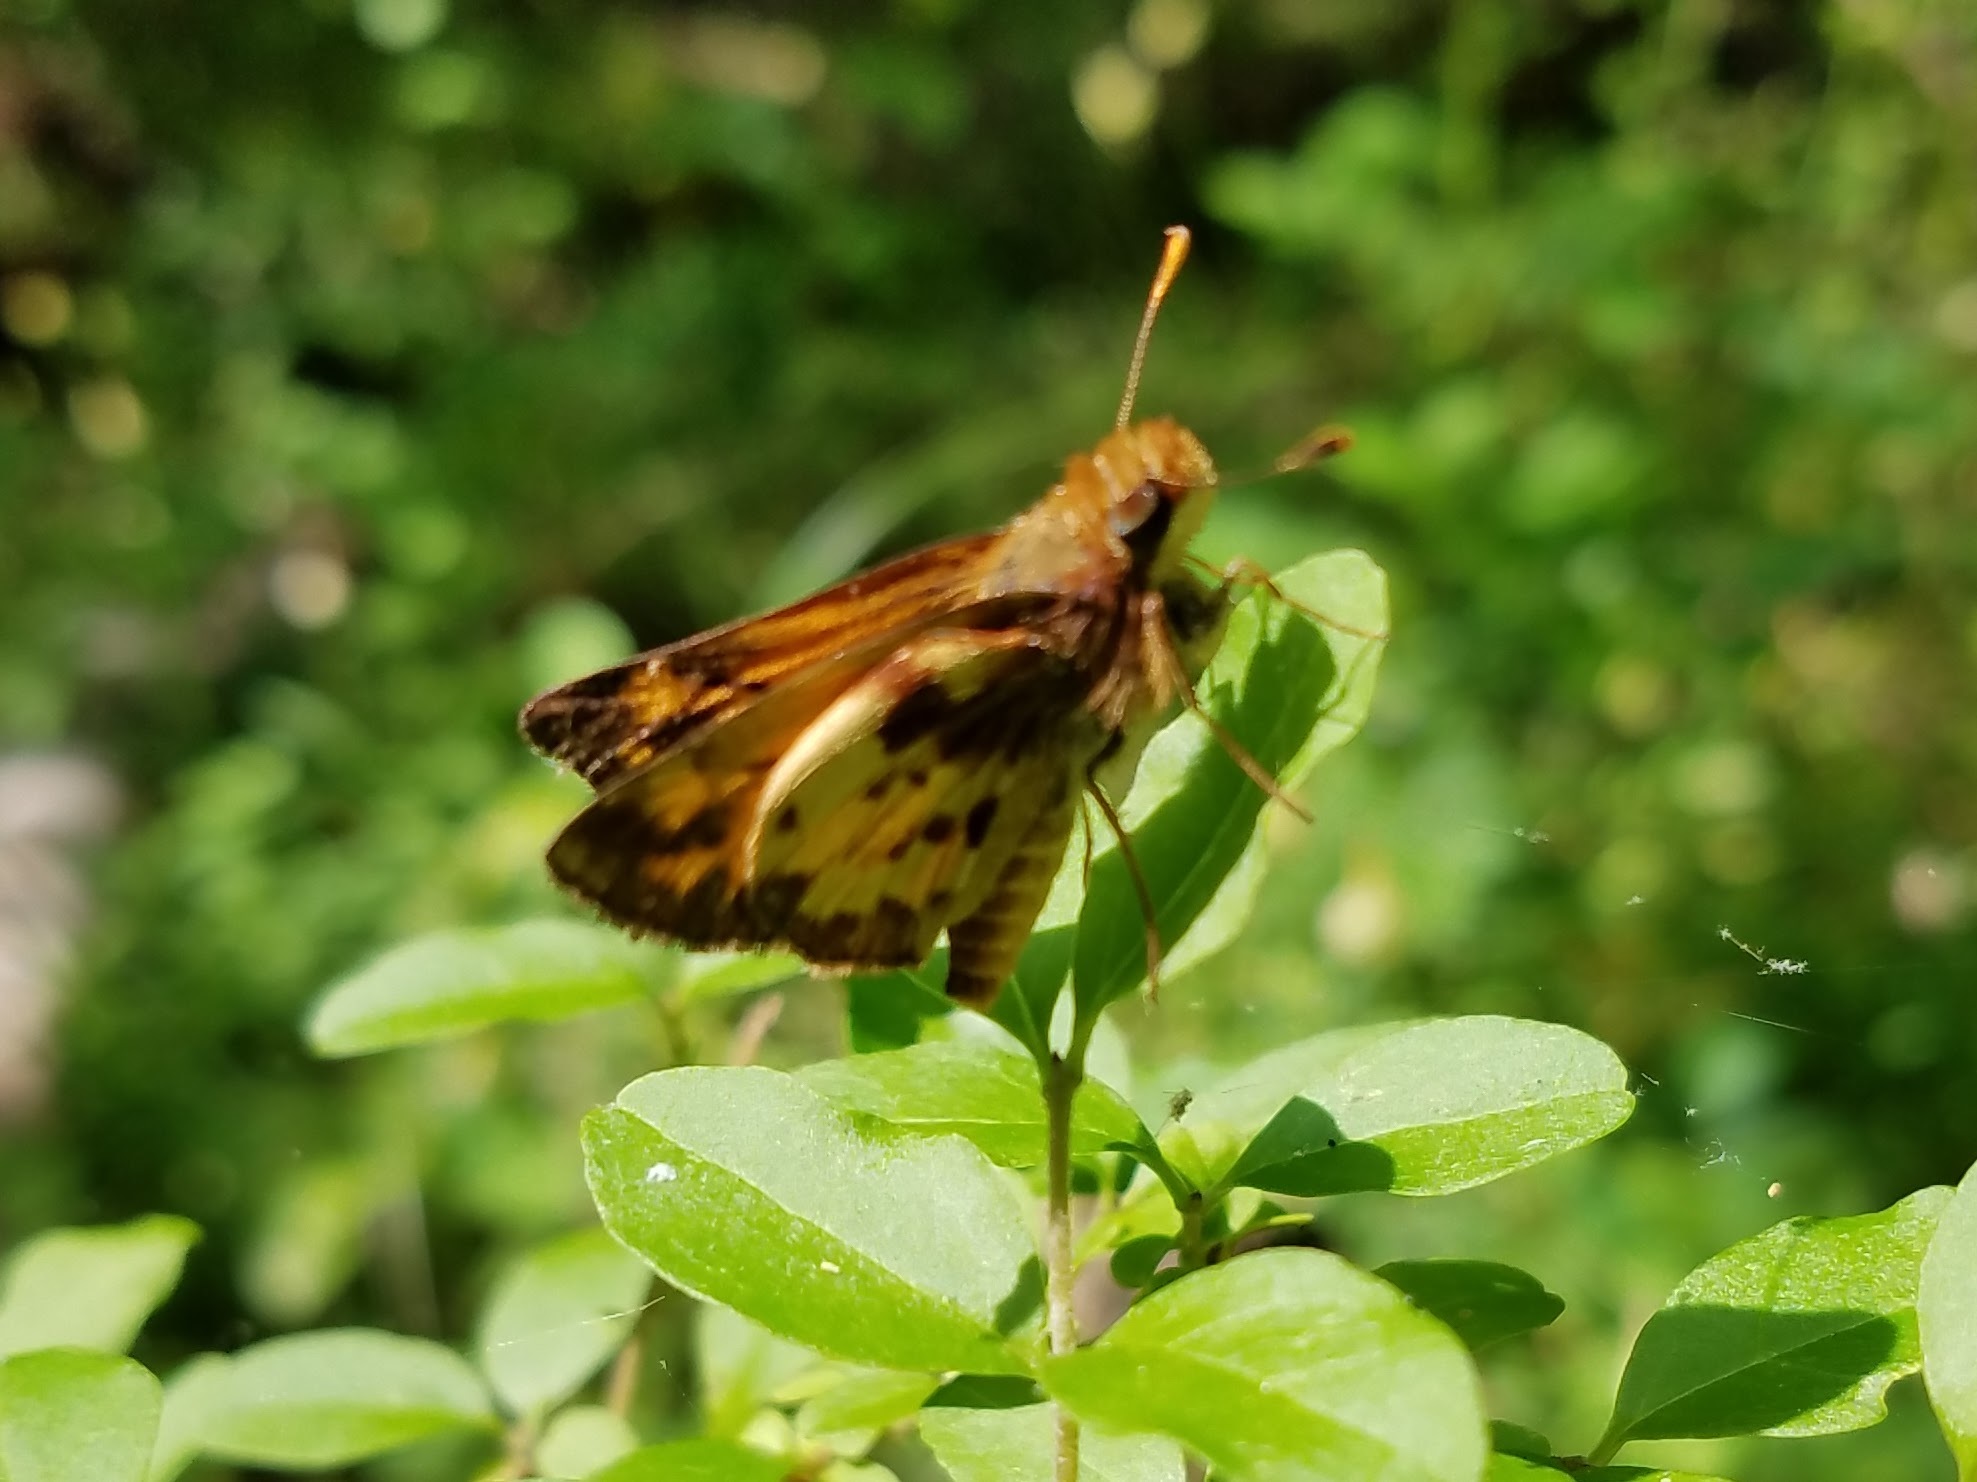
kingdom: Animalia
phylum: Arthropoda
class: Insecta
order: Lepidoptera
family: Hesperiidae
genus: Lon
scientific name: Lon zabulon
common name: Zabulon skipper
